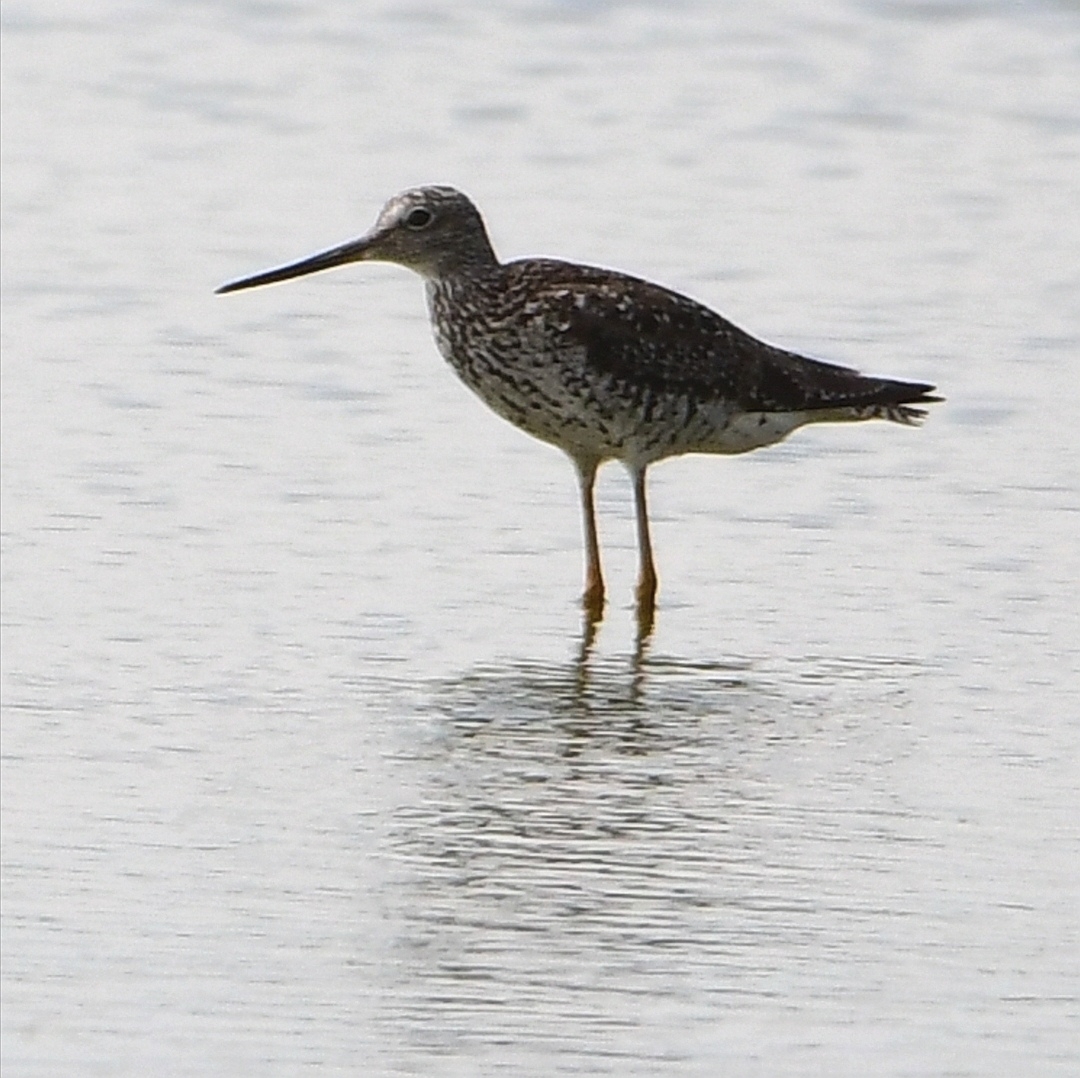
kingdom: Animalia
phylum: Chordata
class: Aves
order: Charadriiformes
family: Scolopacidae
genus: Tringa
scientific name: Tringa melanoleuca
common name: Greater yellowlegs
